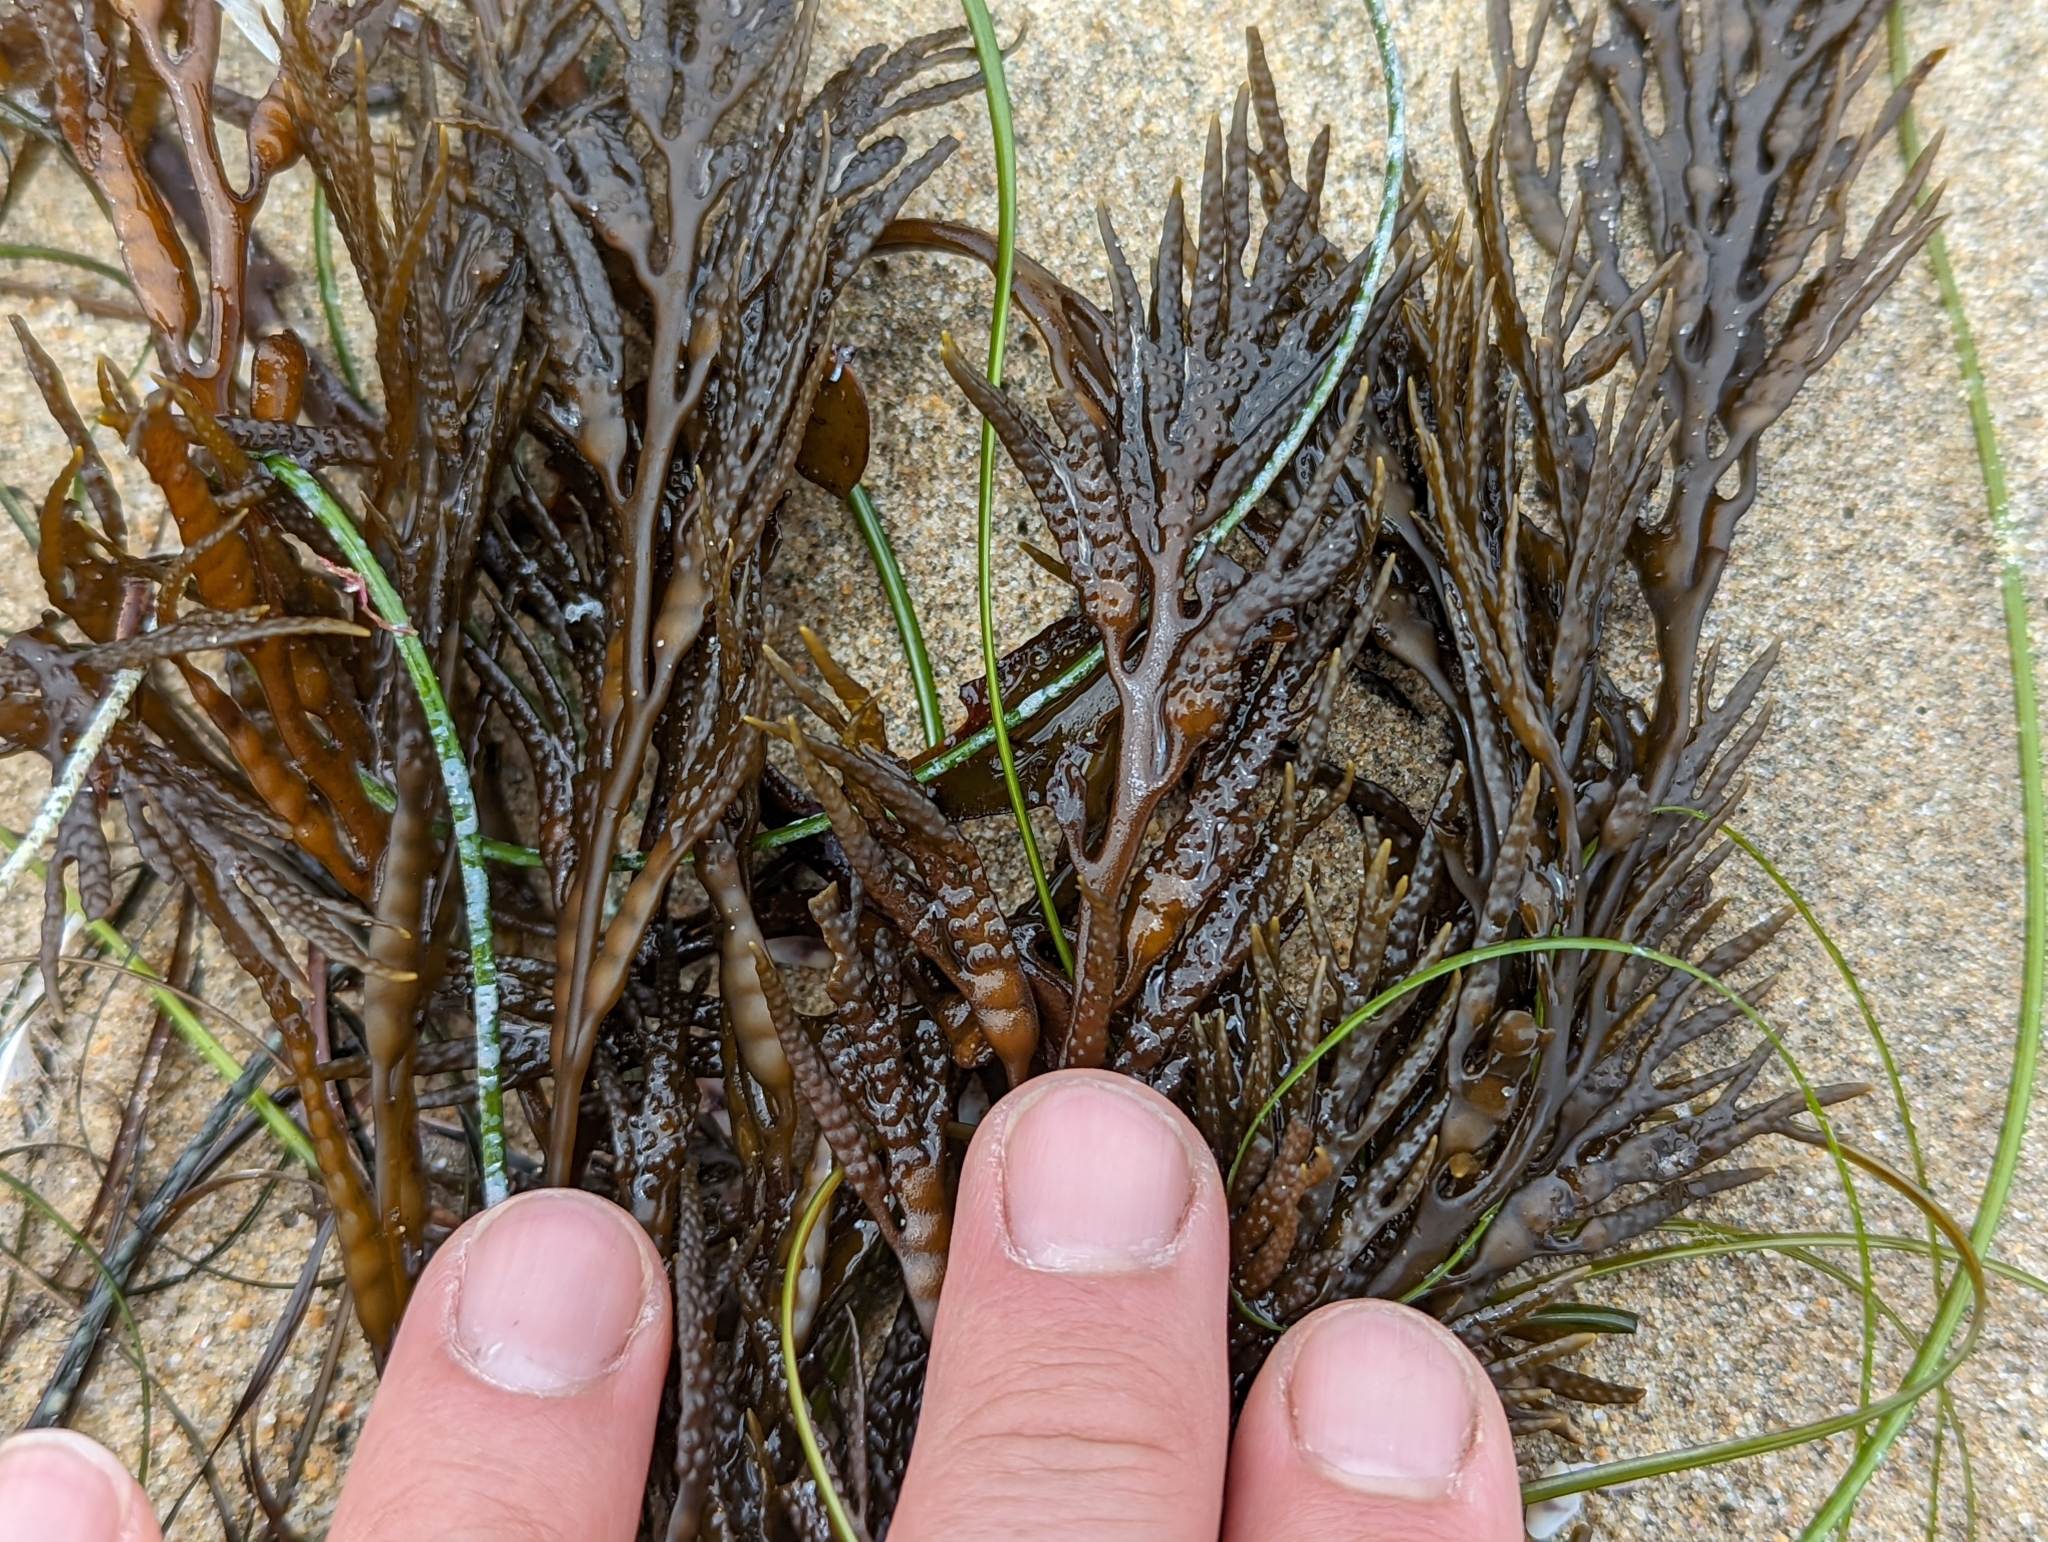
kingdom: Chromista
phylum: Ochrophyta
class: Phaeophyceae
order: Fucales
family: Sargassaceae
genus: Stephanocystis
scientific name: Stephanocystis
